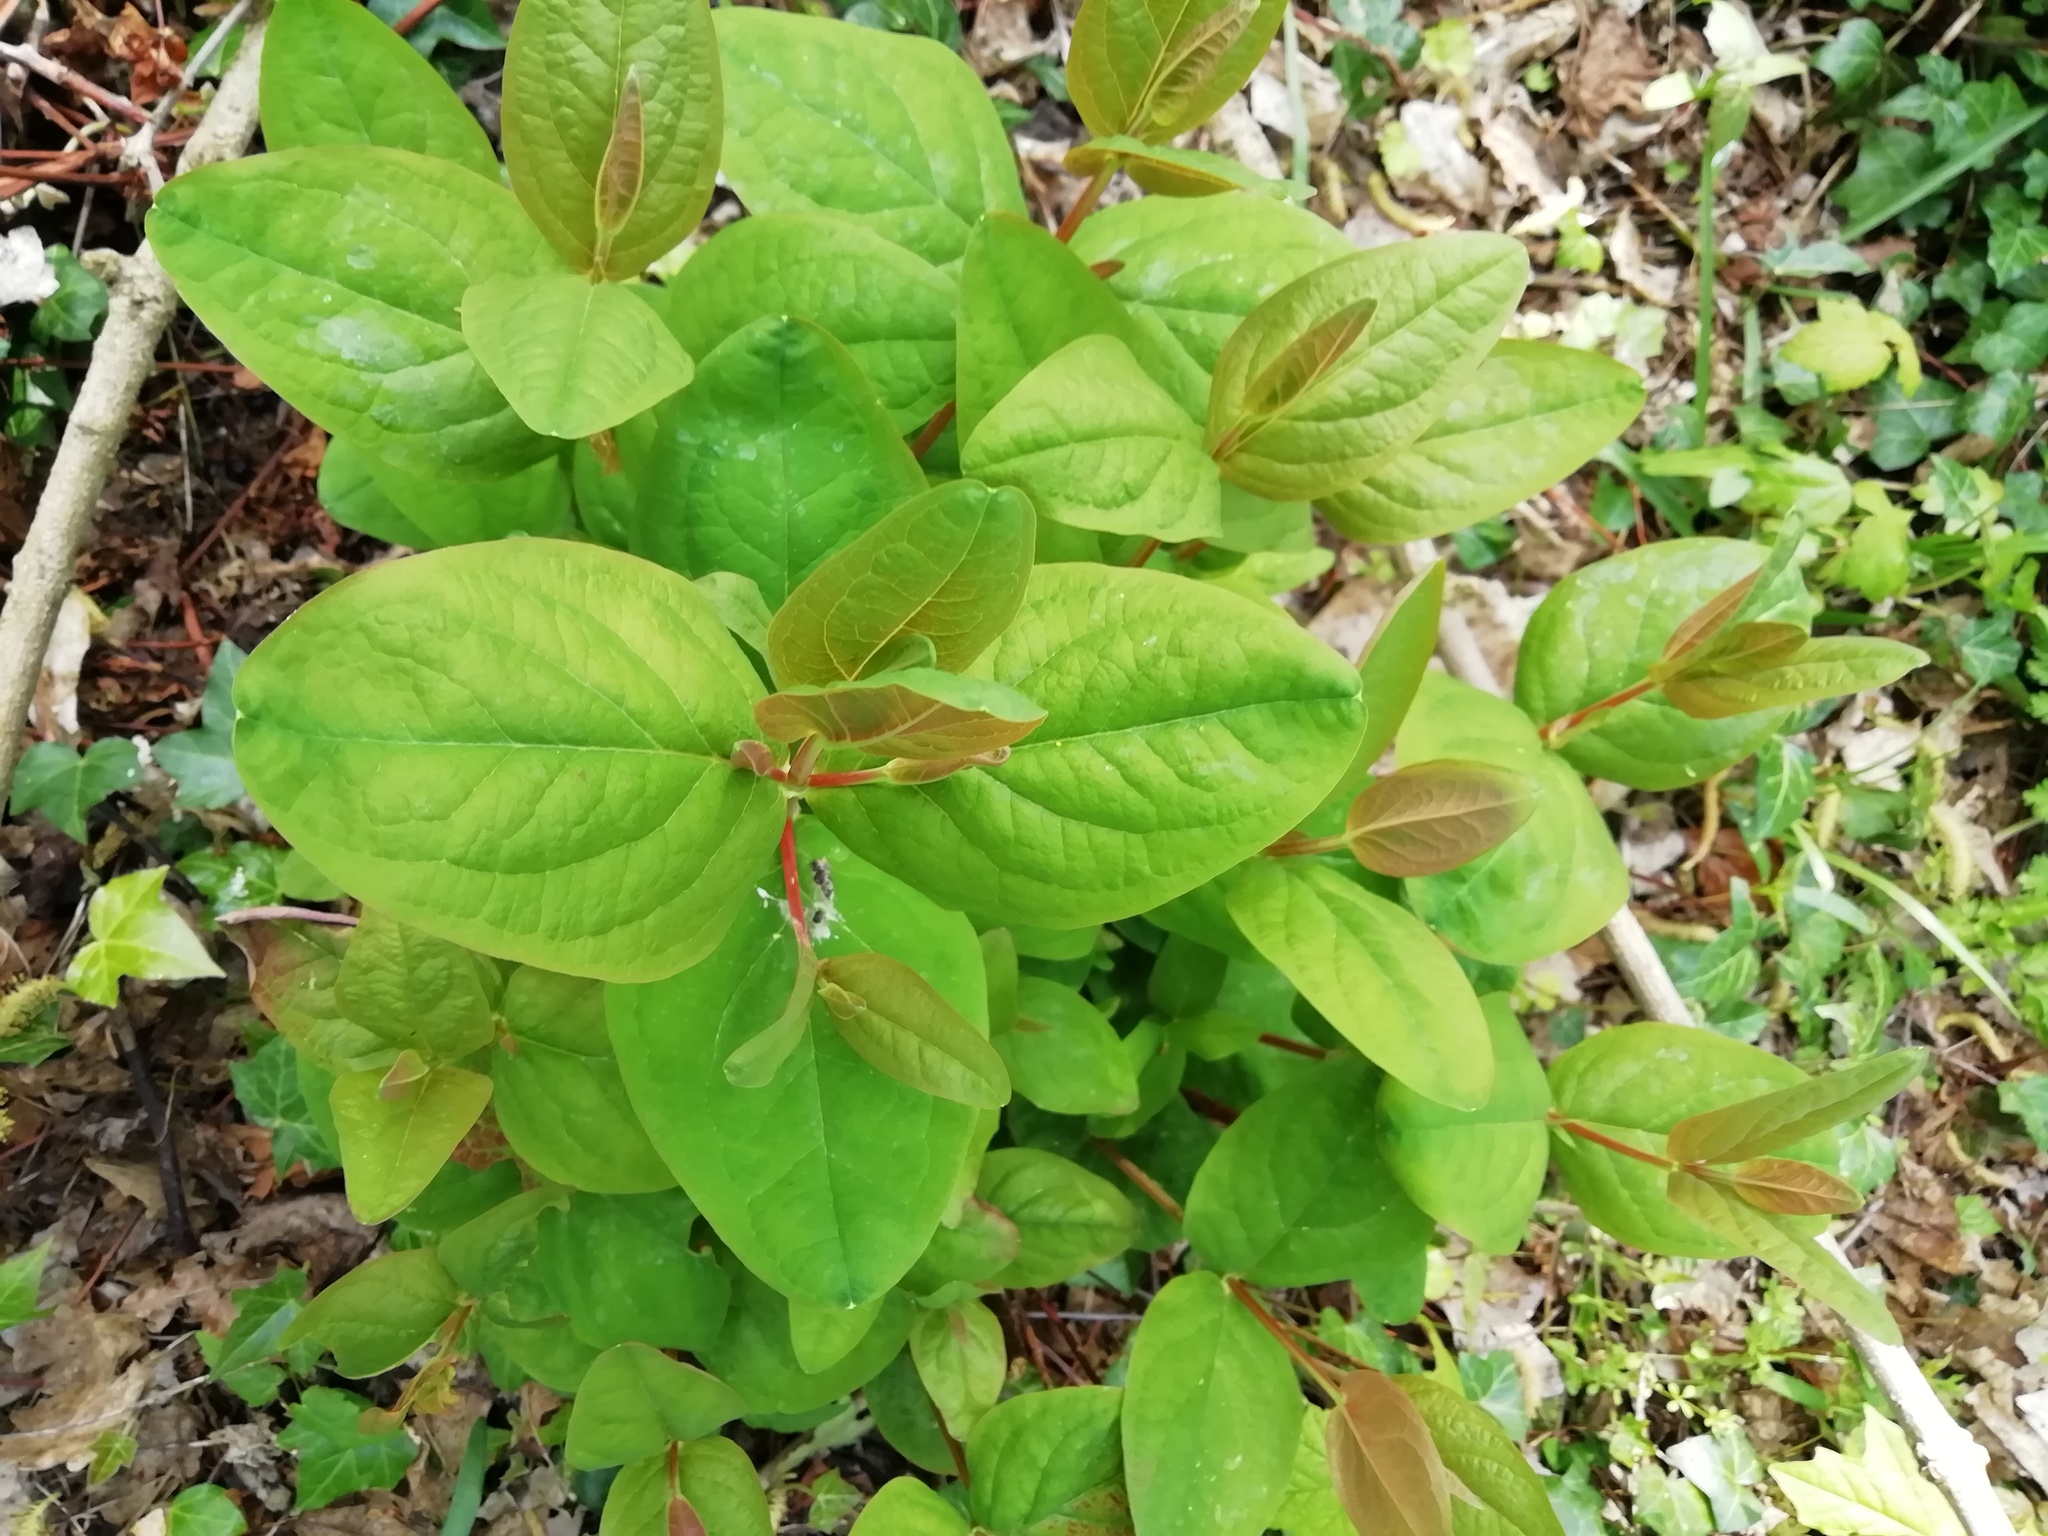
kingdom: Plantae
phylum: Tracheophyta
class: Magnoliopsida
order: Malpighiales
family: Hypericaceae
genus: Hypericum
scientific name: Hypericum androsaemum
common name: Sweet-amber
